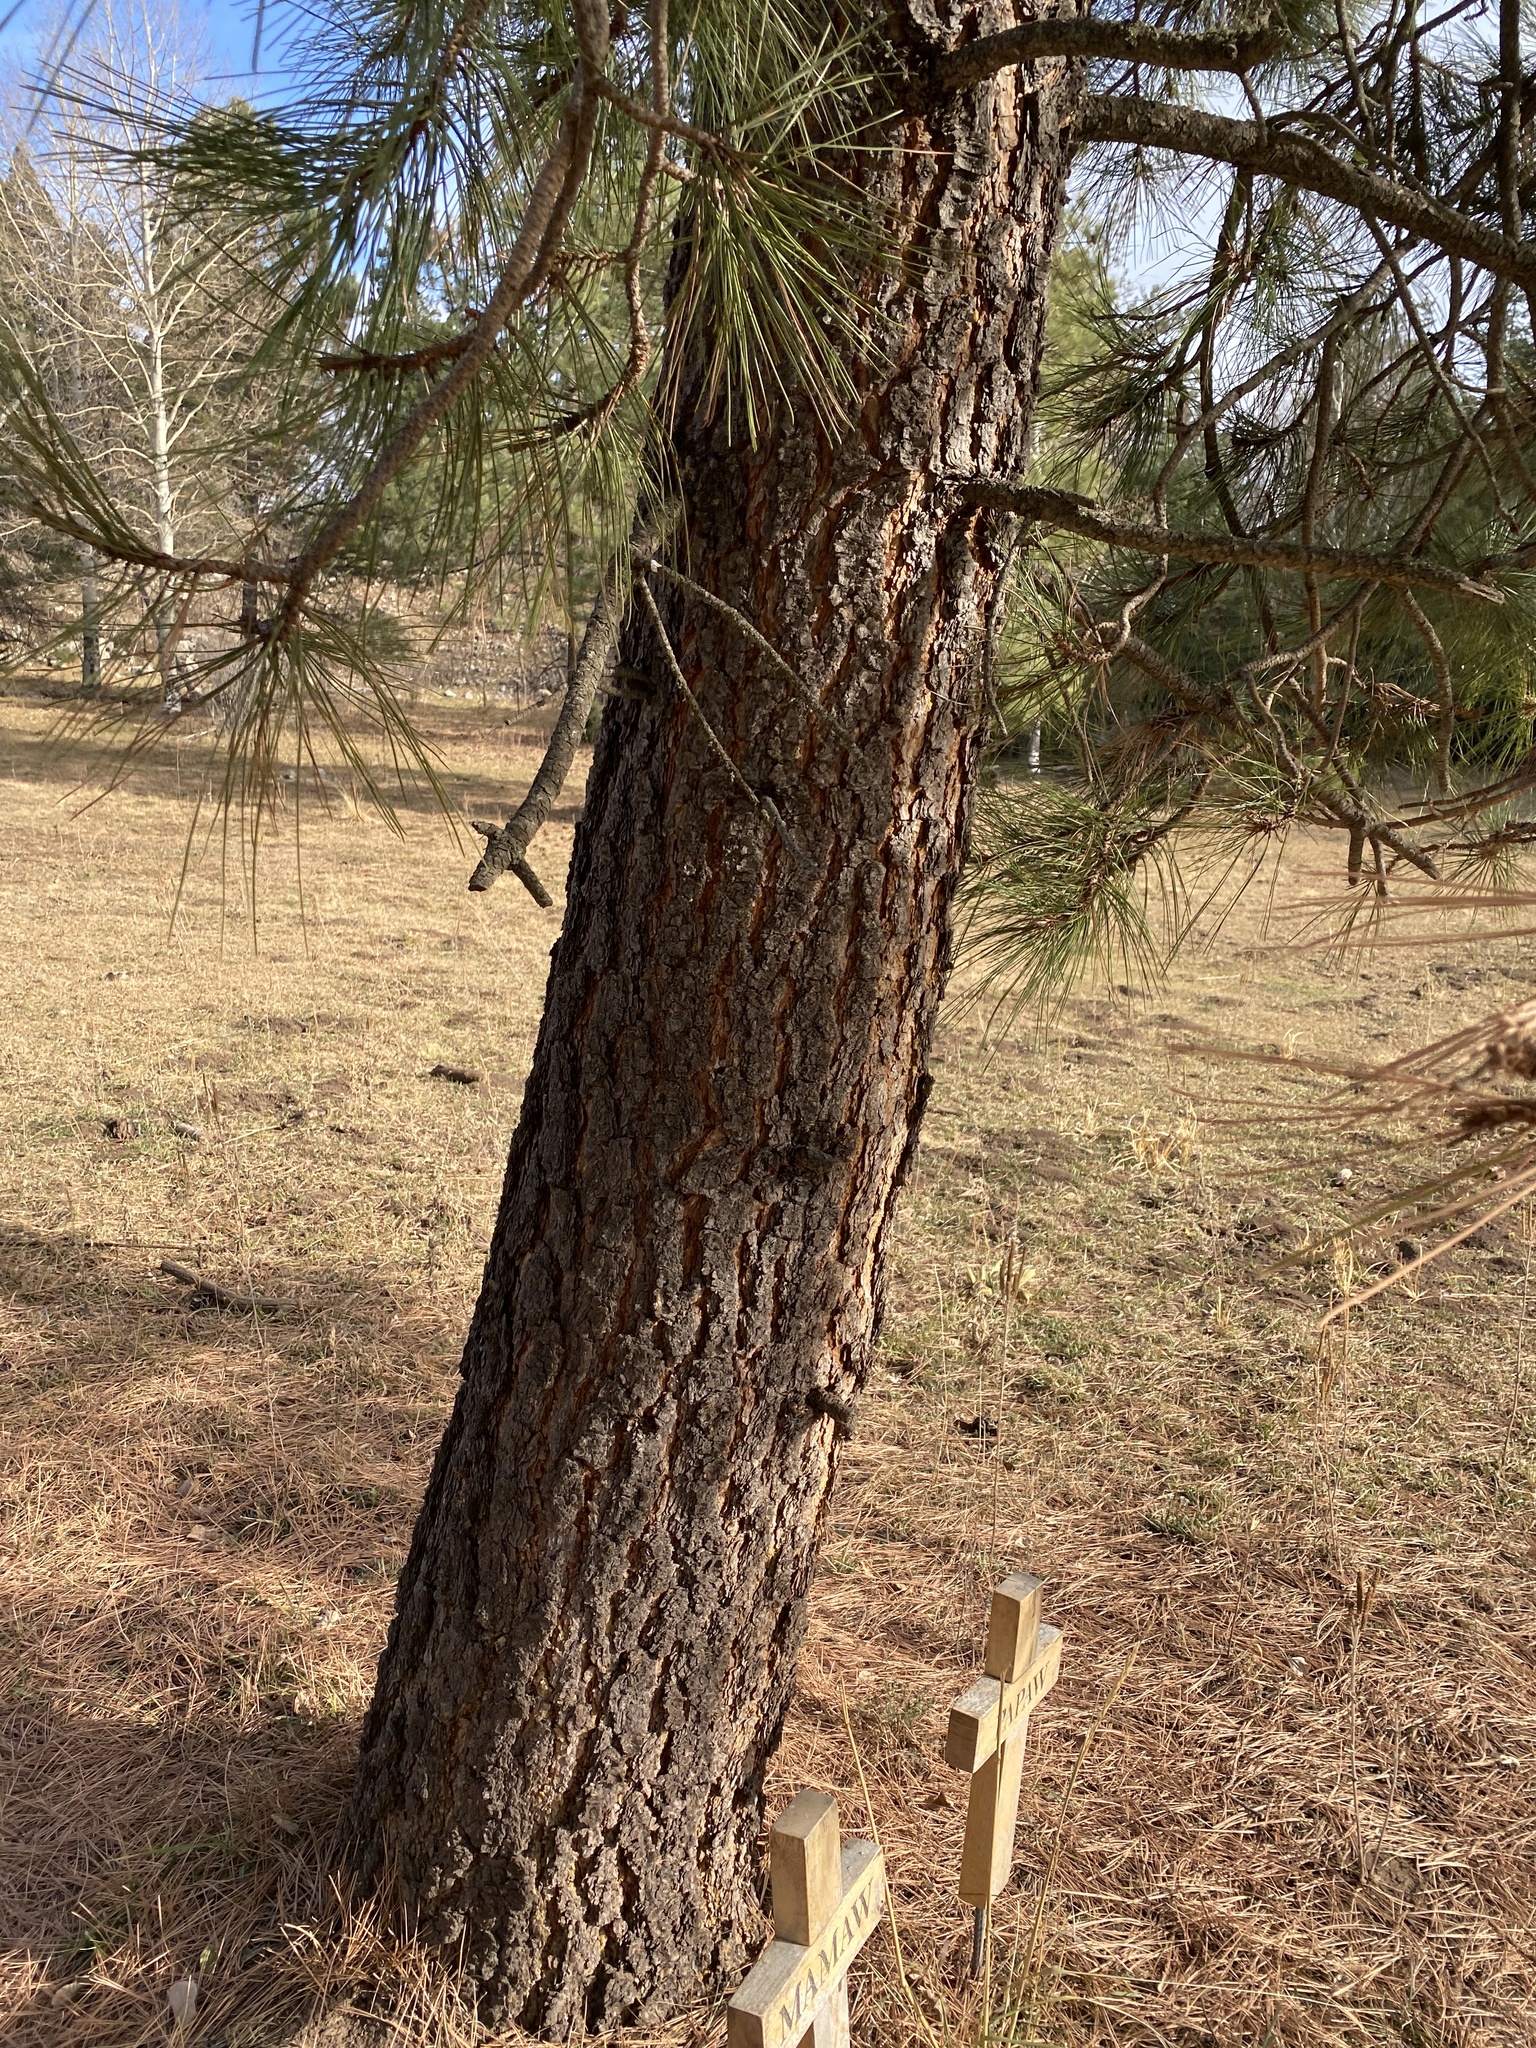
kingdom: Plantae
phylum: Tracheophyta
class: Pinopsida
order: Pinales
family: Pinaceae
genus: Pinus
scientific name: Pinus ponderosa
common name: Western yellow-pine
